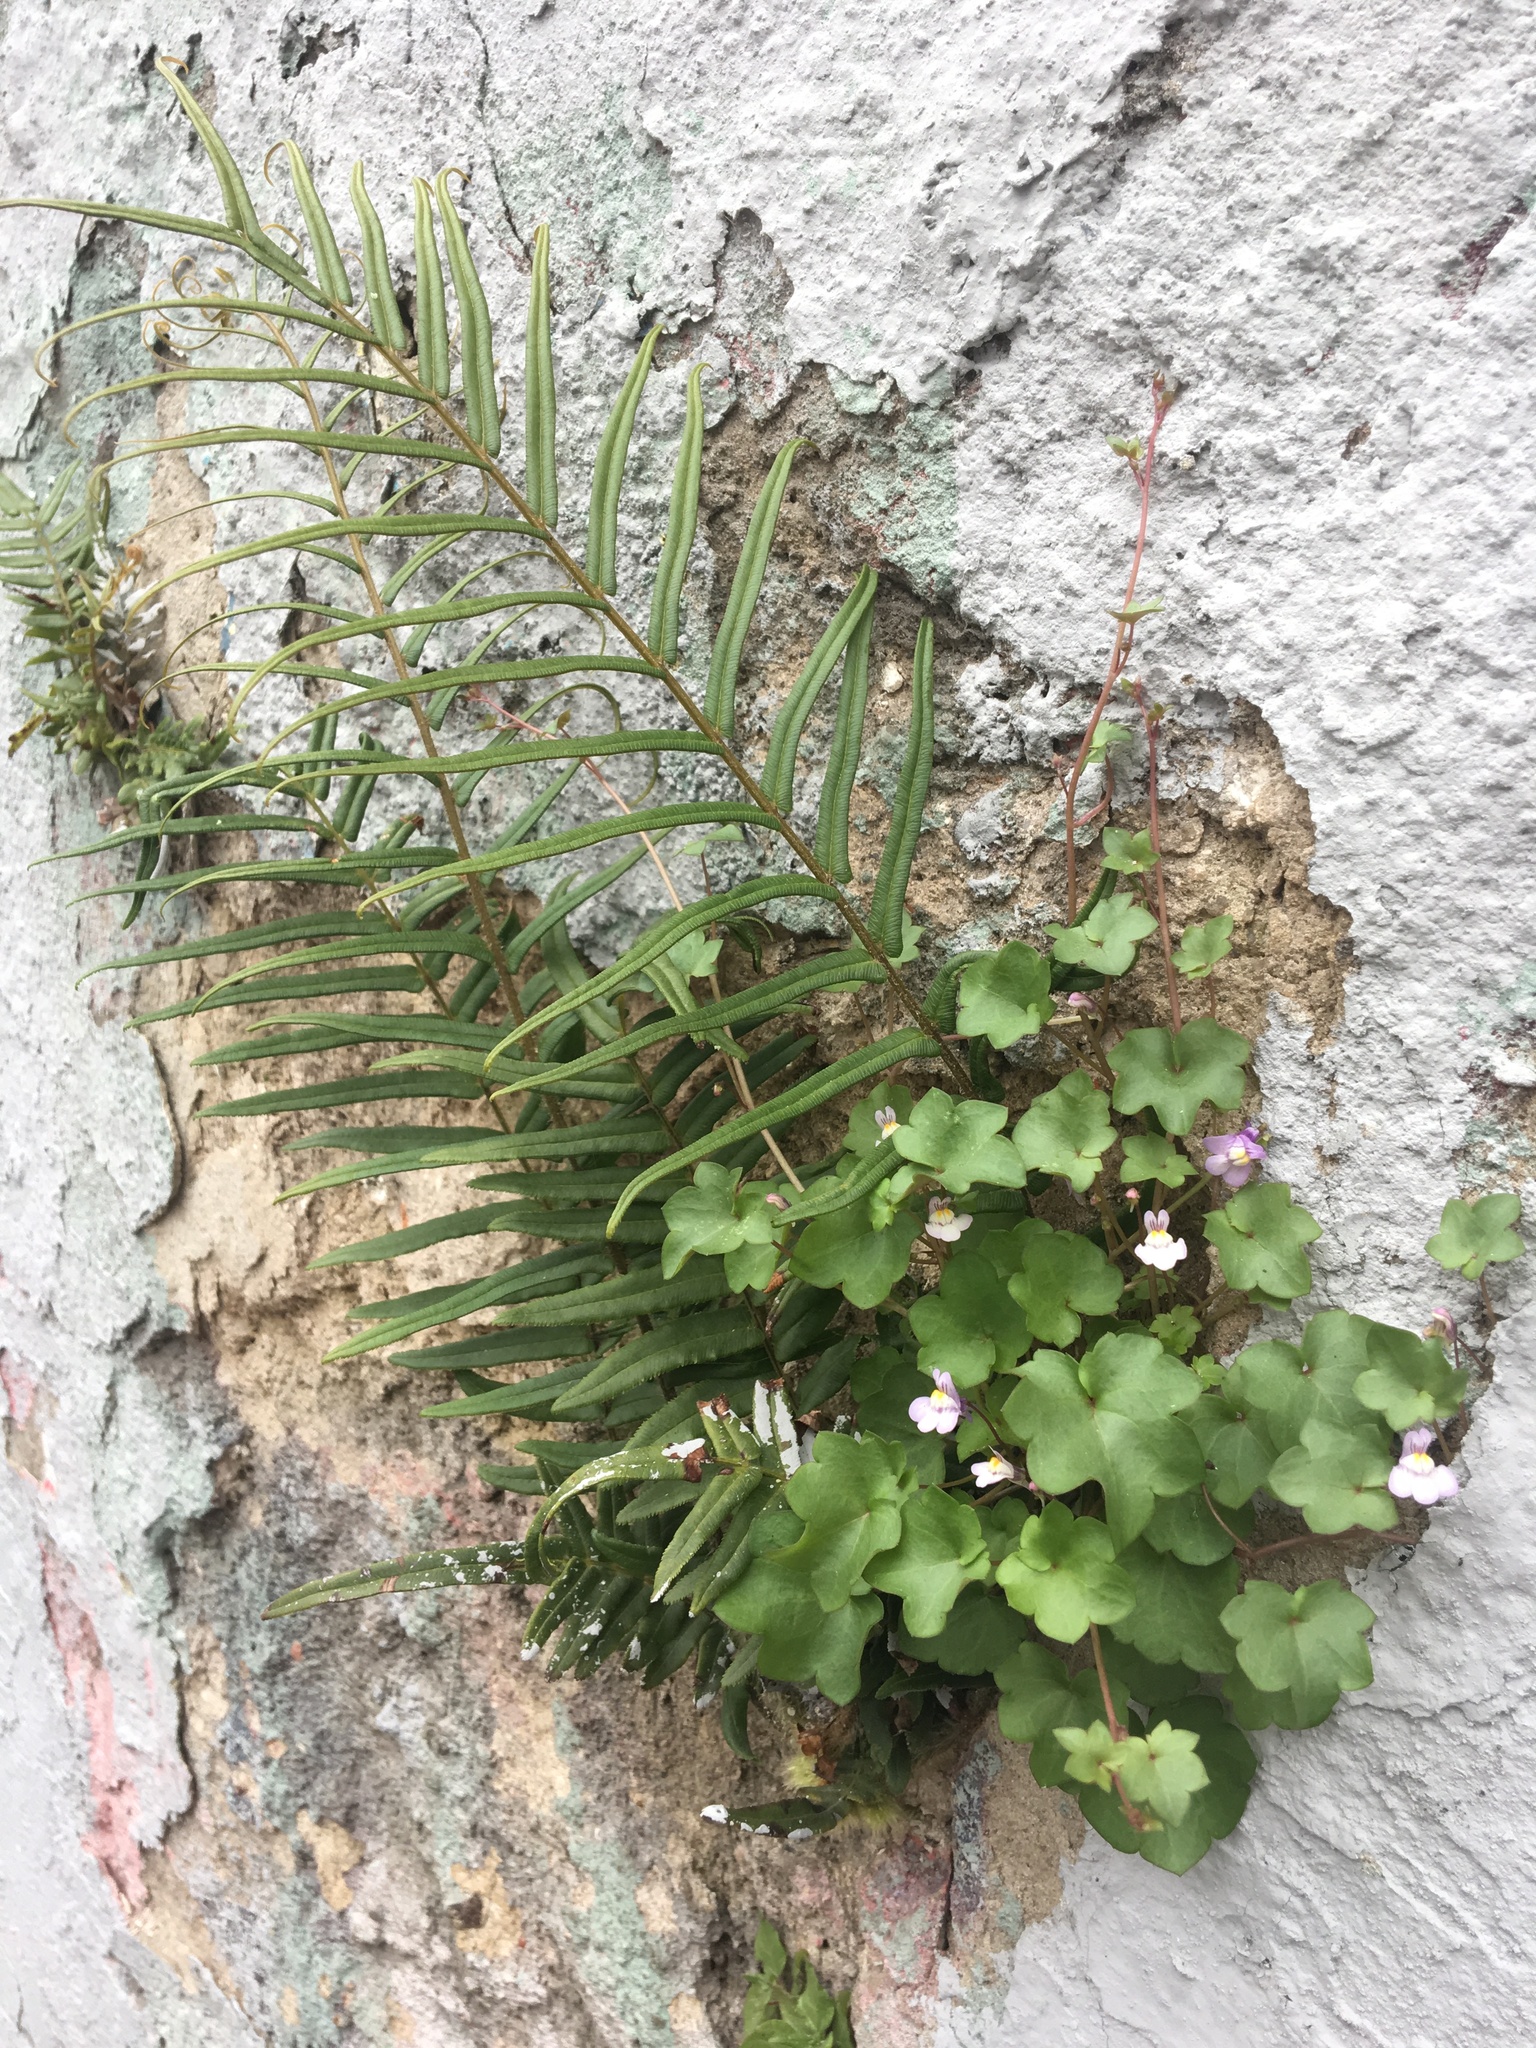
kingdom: Plantae
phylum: Tracheophyta
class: Magnoliopsida
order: Lamiales
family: Plantaginaceae
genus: Cymbalaria
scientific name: Cymbalaria muralis
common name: Ivy-leaved toadflax
